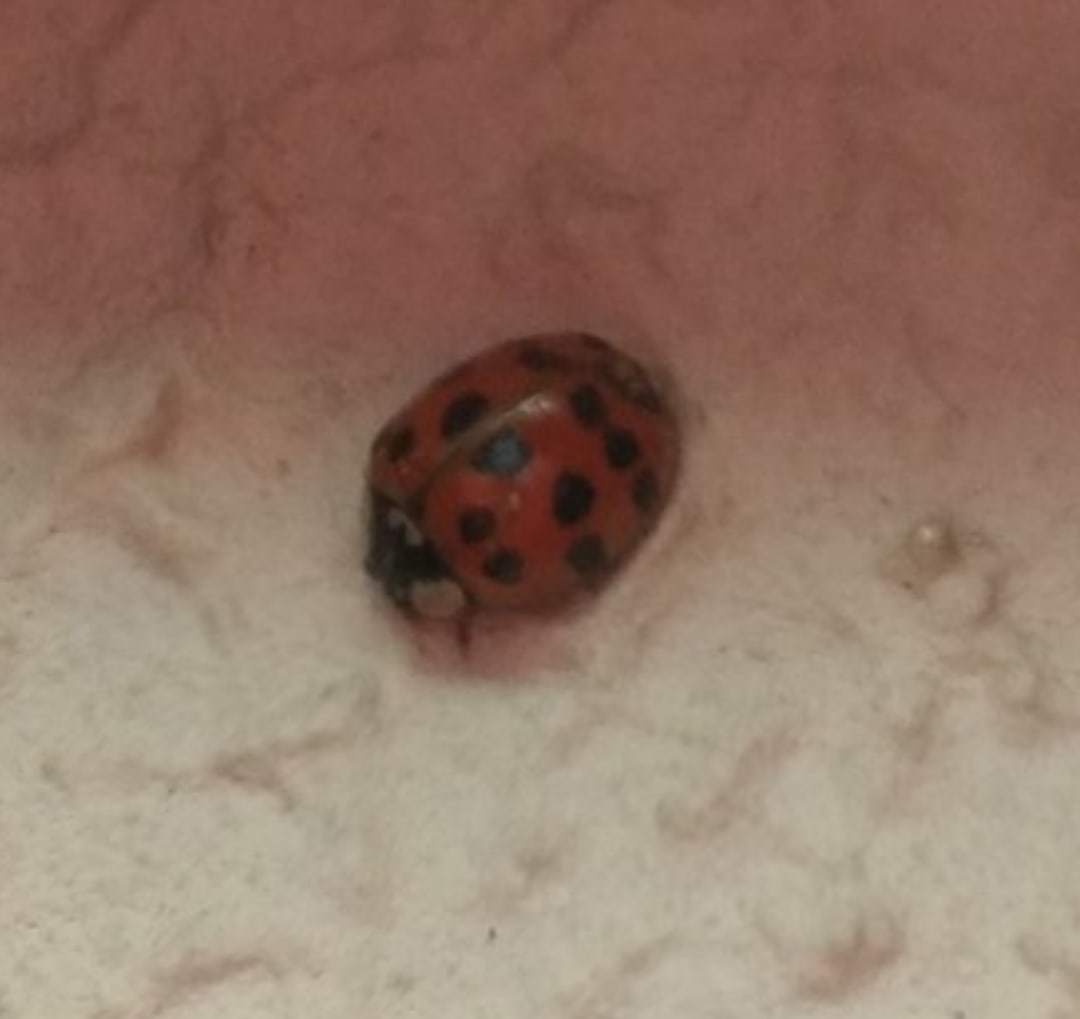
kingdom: Animalia
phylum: Arthropoda
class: Insecta
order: Coleoptera
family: Coccinellidae
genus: Harmonia
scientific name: Harmonia axyridis
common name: Harlequin ladybird
